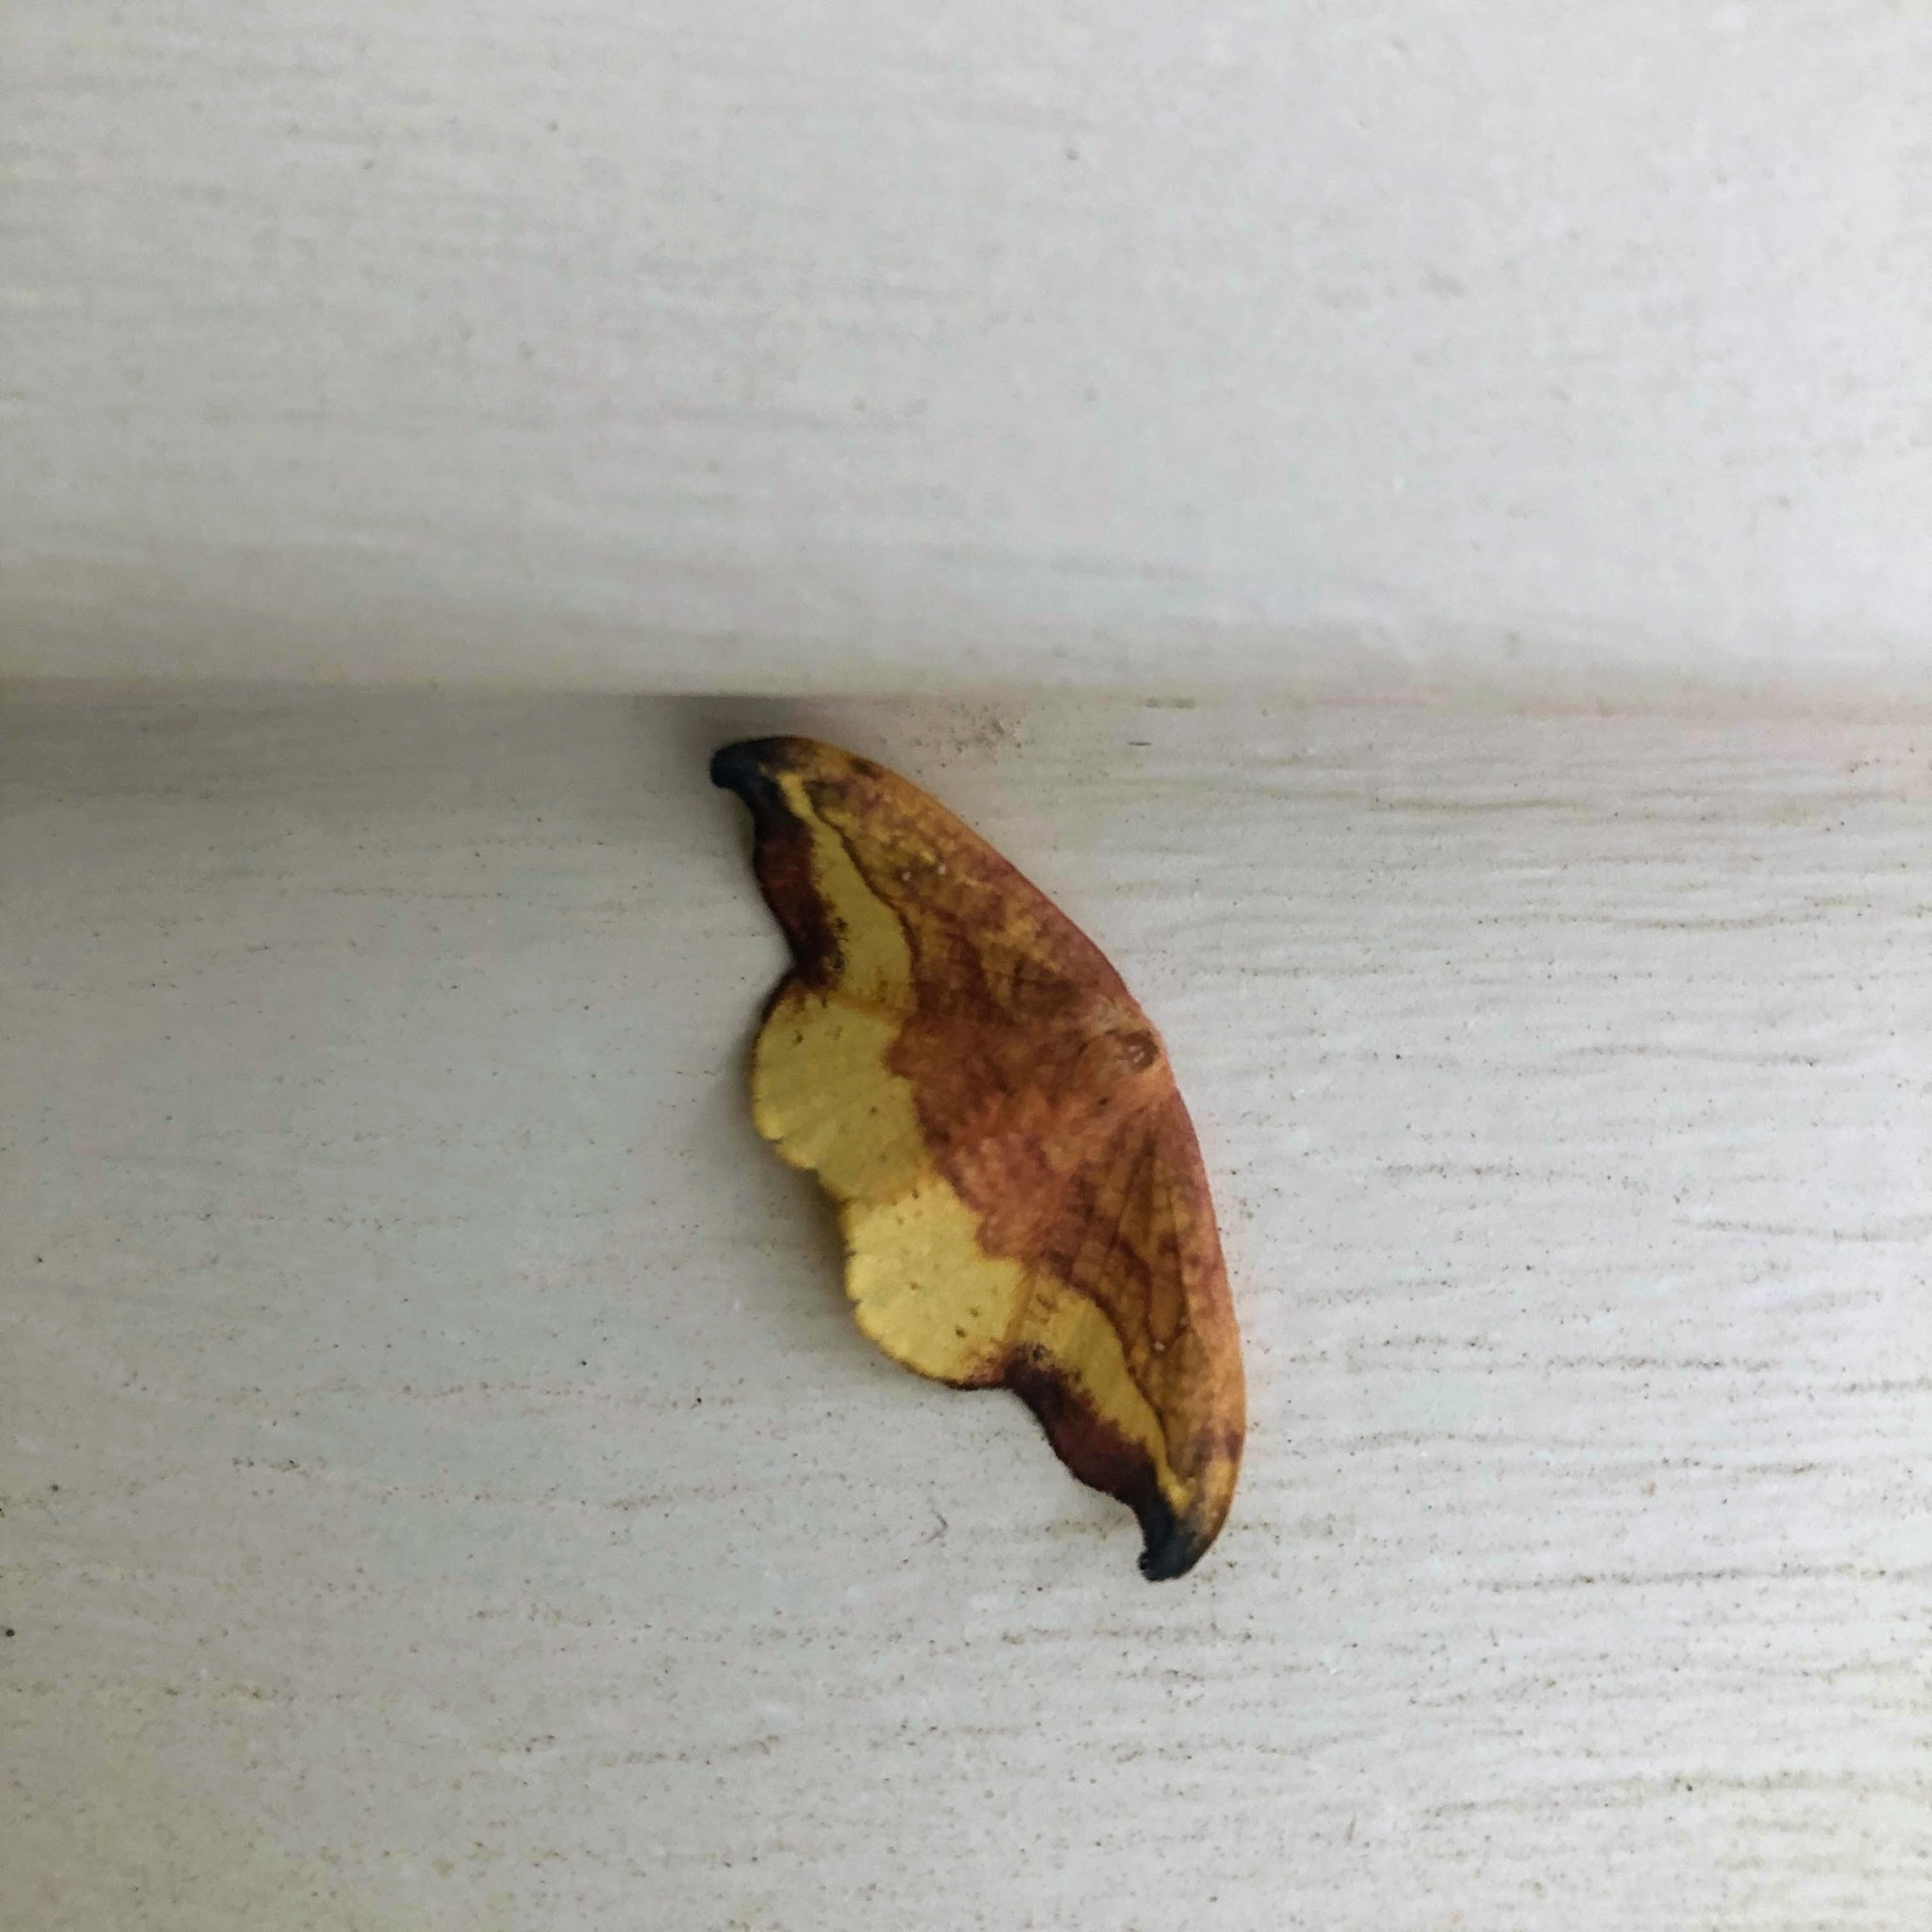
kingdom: Animalia
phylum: Arthropoda
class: Insecta
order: Lepidoptera
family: Drepanidae
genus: Oreta
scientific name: Oreta rosea
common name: Rose hooktip
